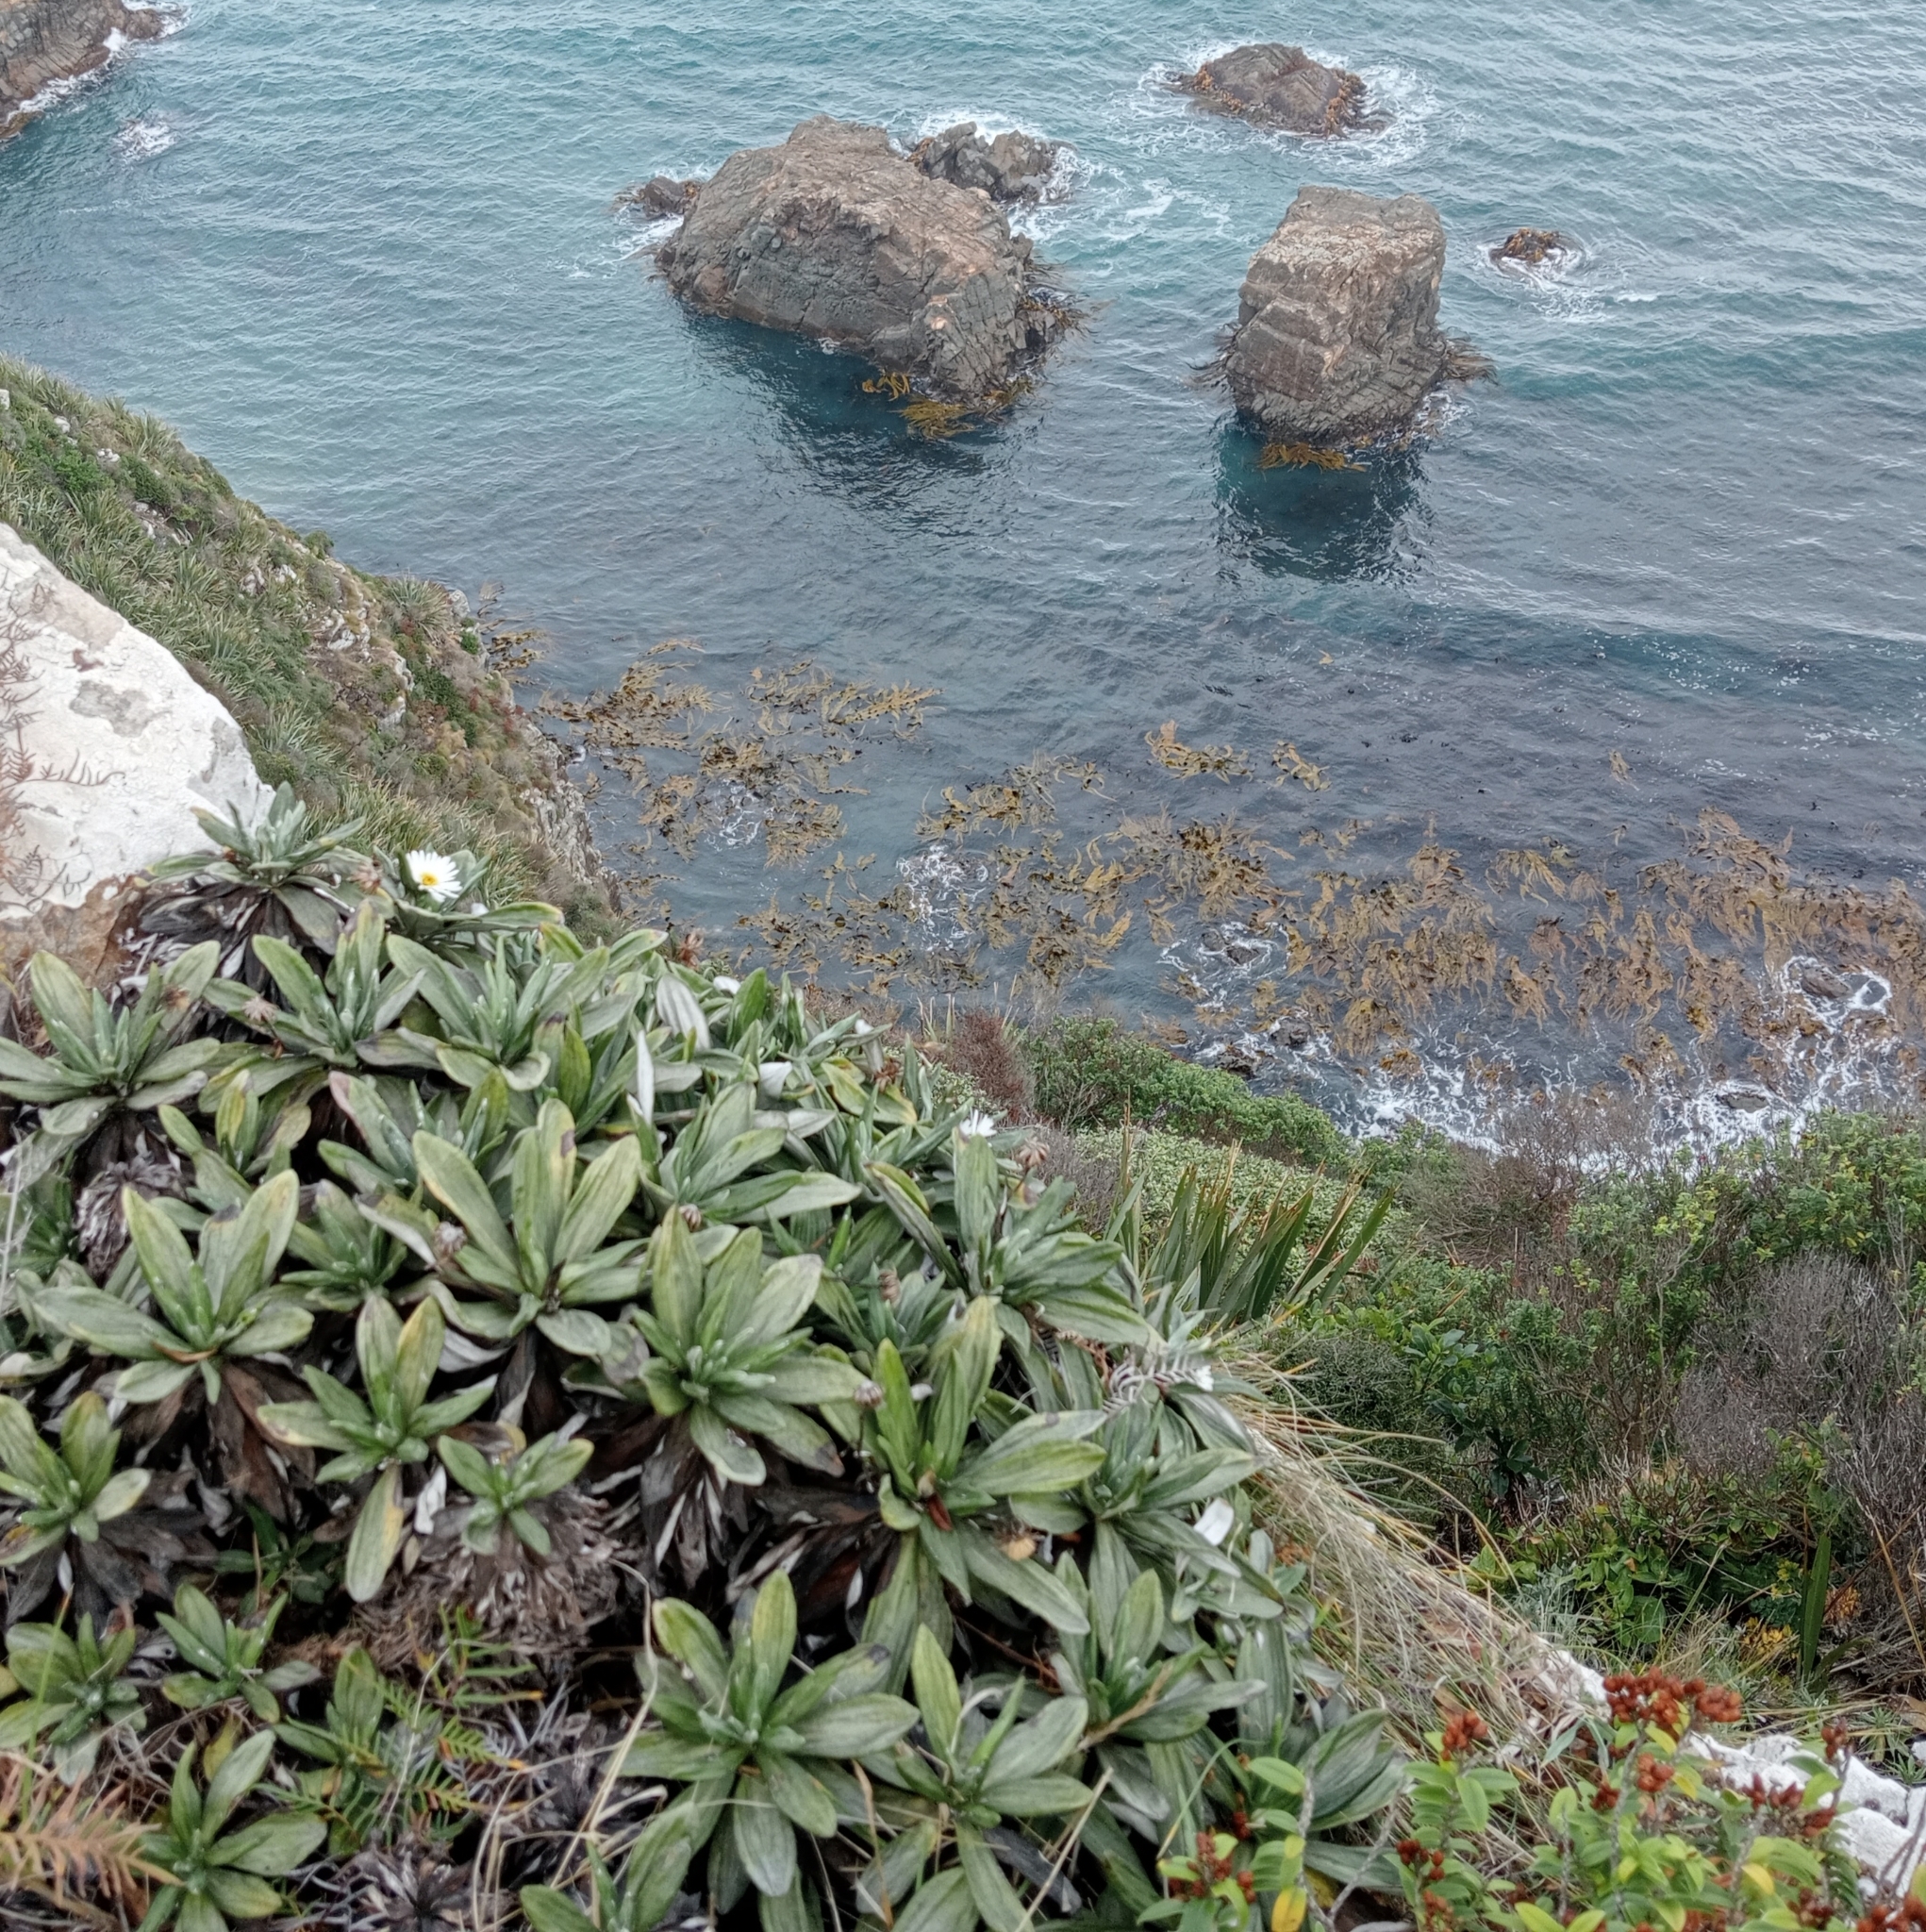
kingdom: Plantae
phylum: Tracheophyta
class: Magnoliopsida
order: Asterales
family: Asteraceae
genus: Celmisia
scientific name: Celmisia lindsayi
